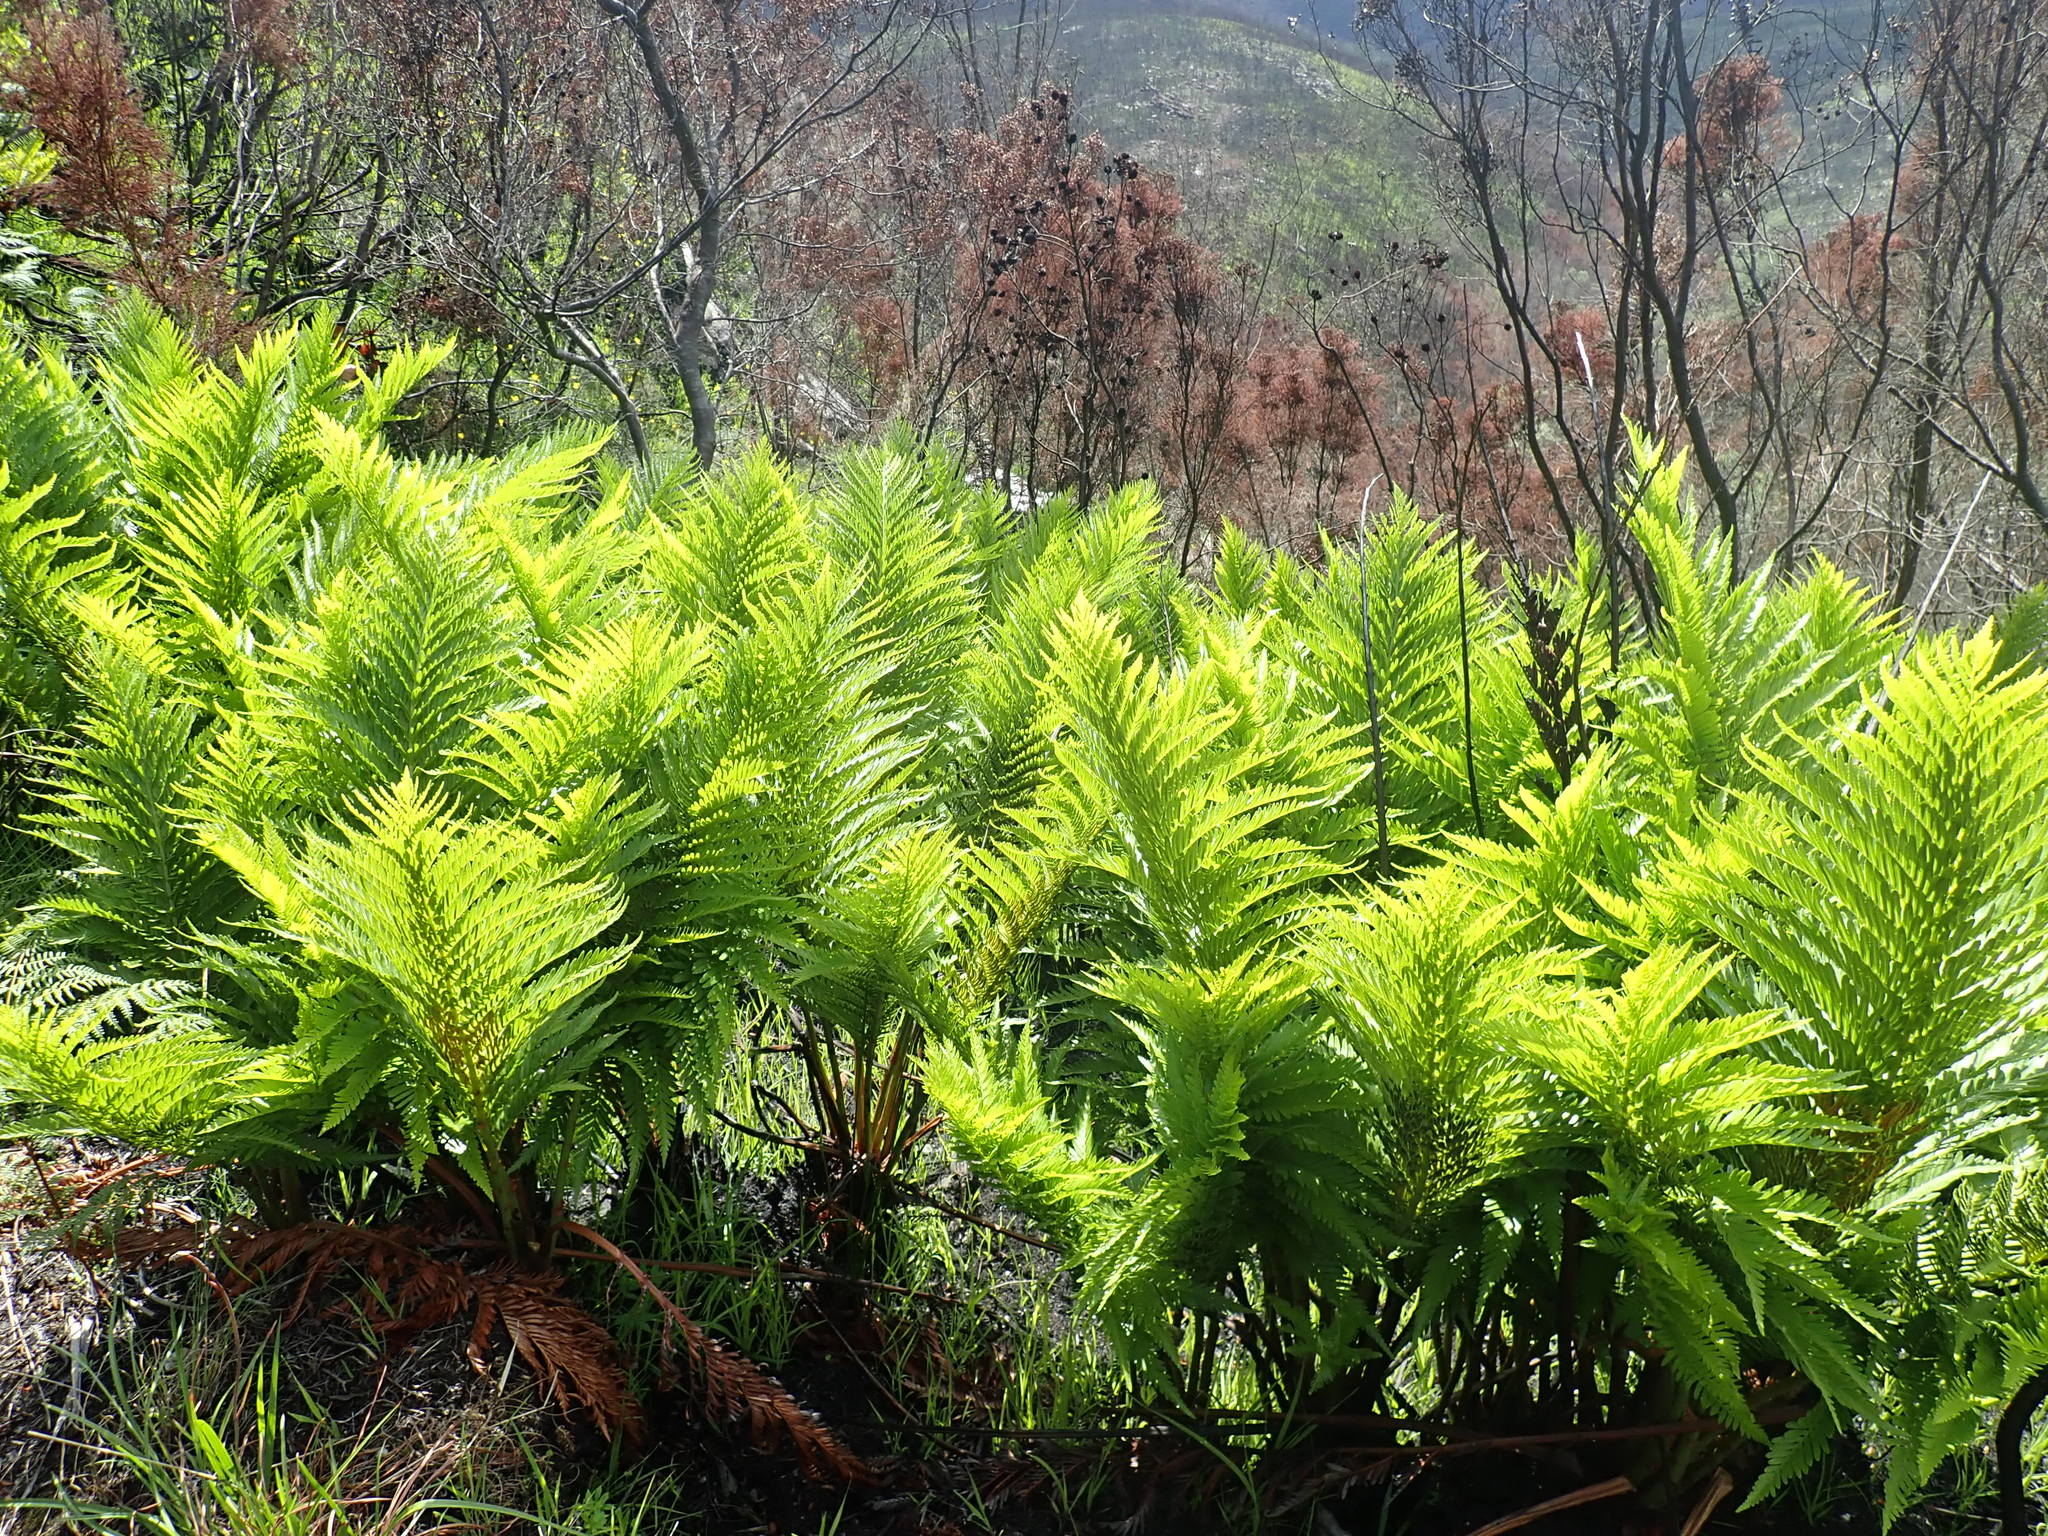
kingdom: Plantae
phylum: Tracheophyta
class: Polypodiopsida
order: Osmundales
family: Osmundaceae
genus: Todea
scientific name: Todea barbara
